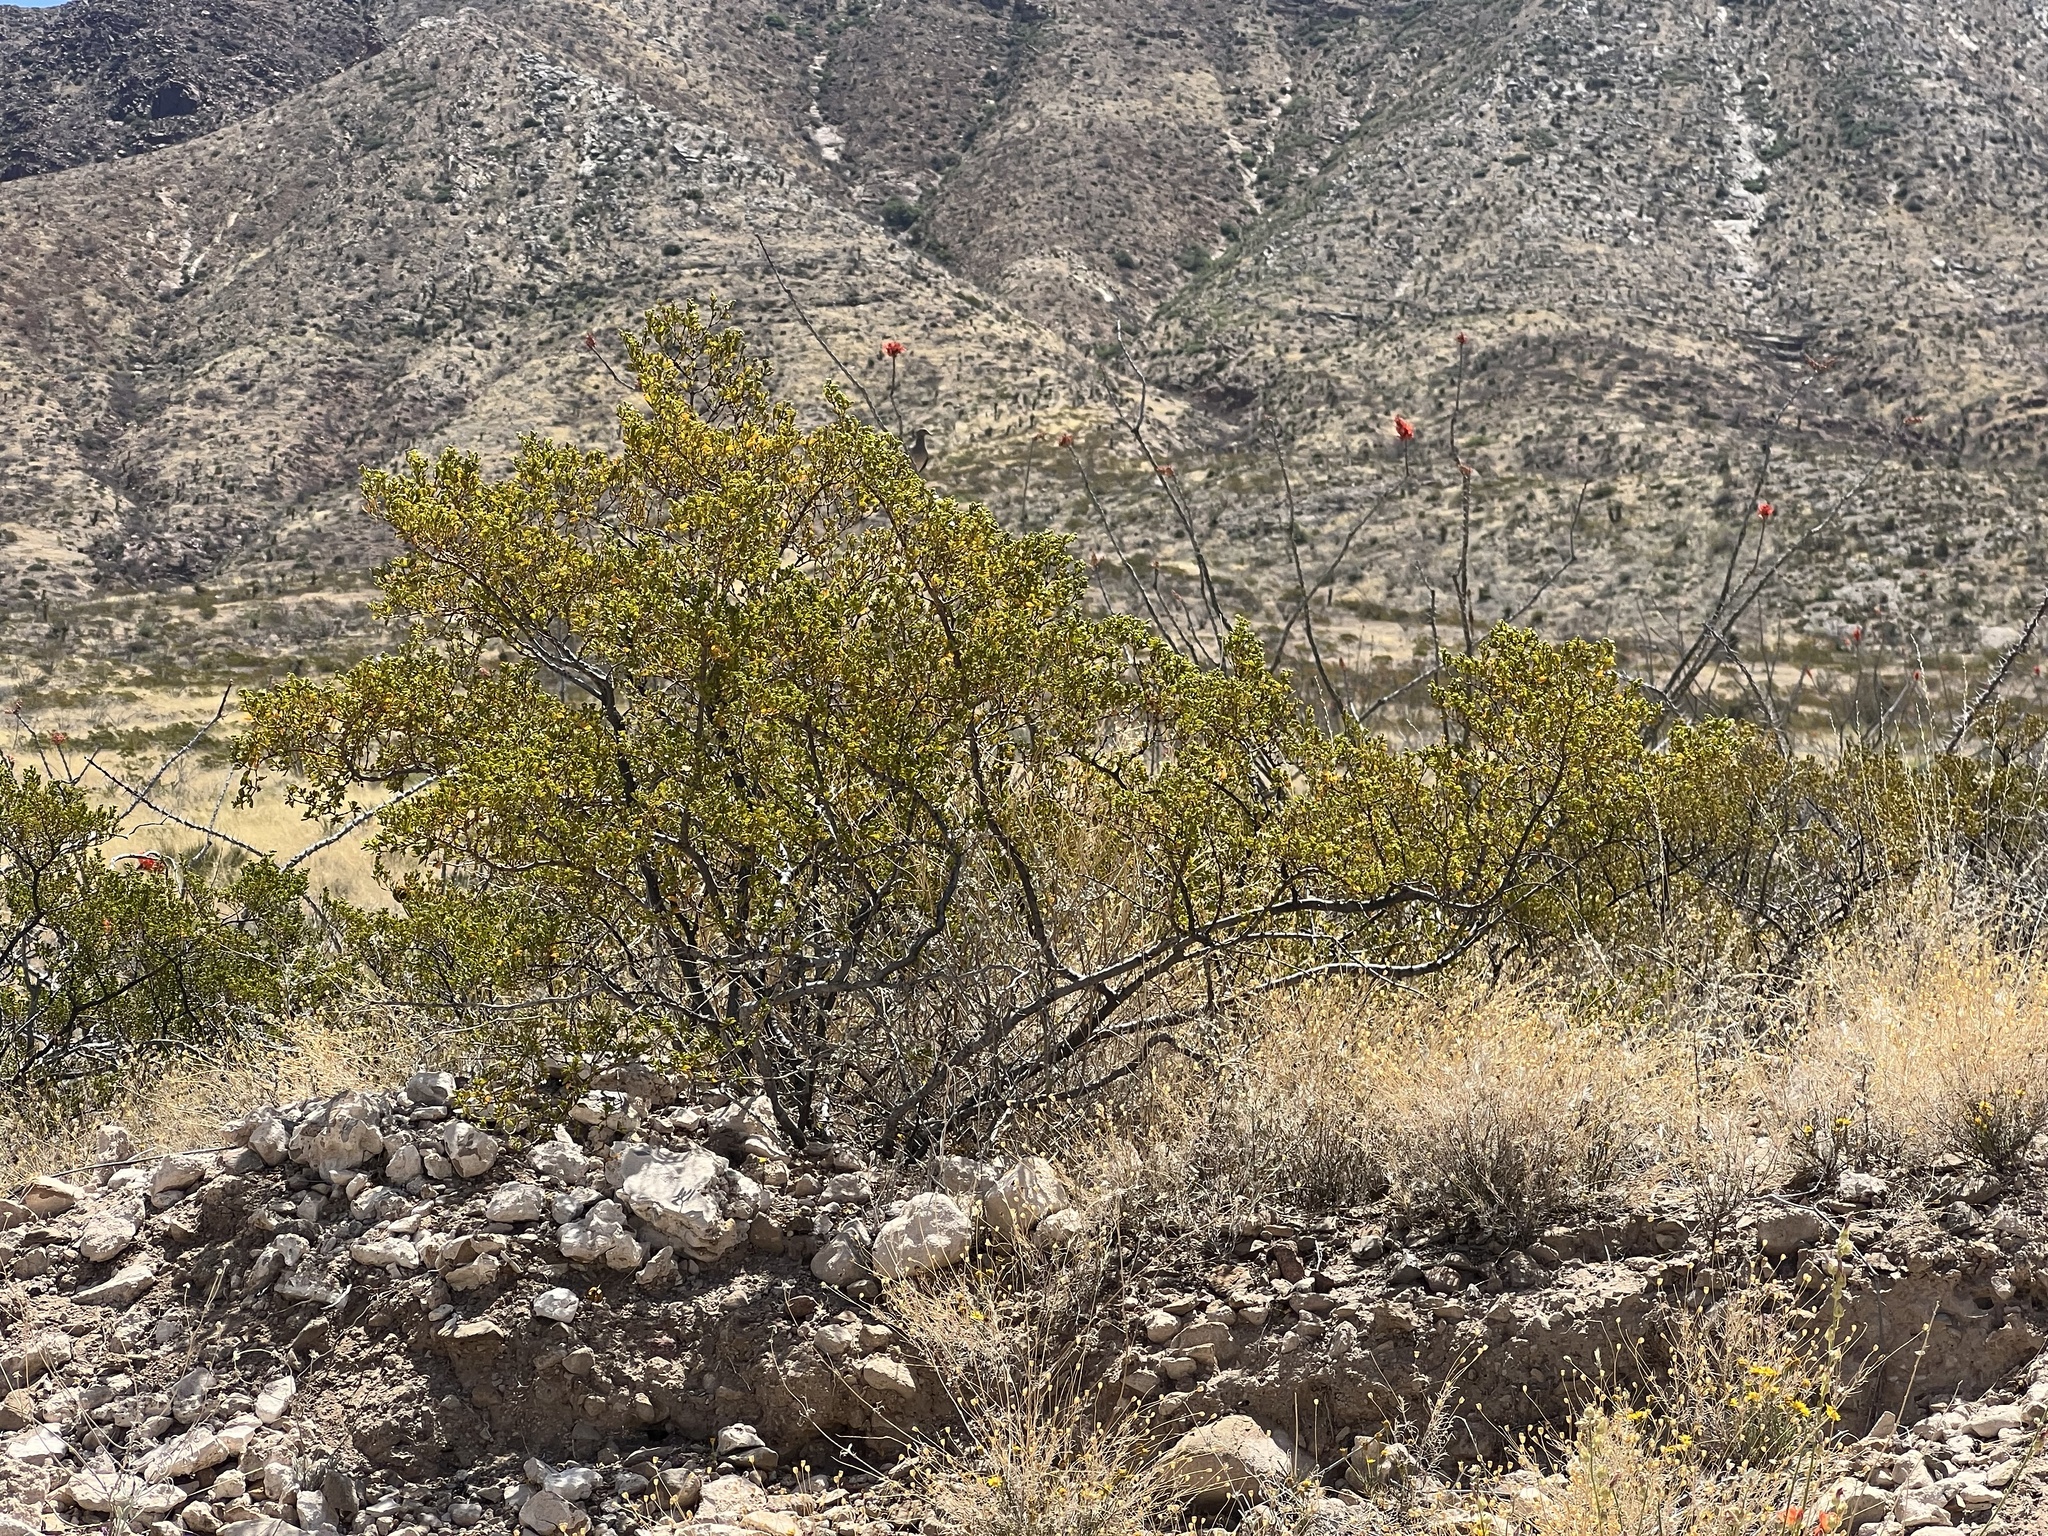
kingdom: Plantae
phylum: Tracheophyta
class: Magnoliopsida
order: Zygophyllales
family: Zygophyllaceae
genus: Larrea
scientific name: Larrea tridentata
